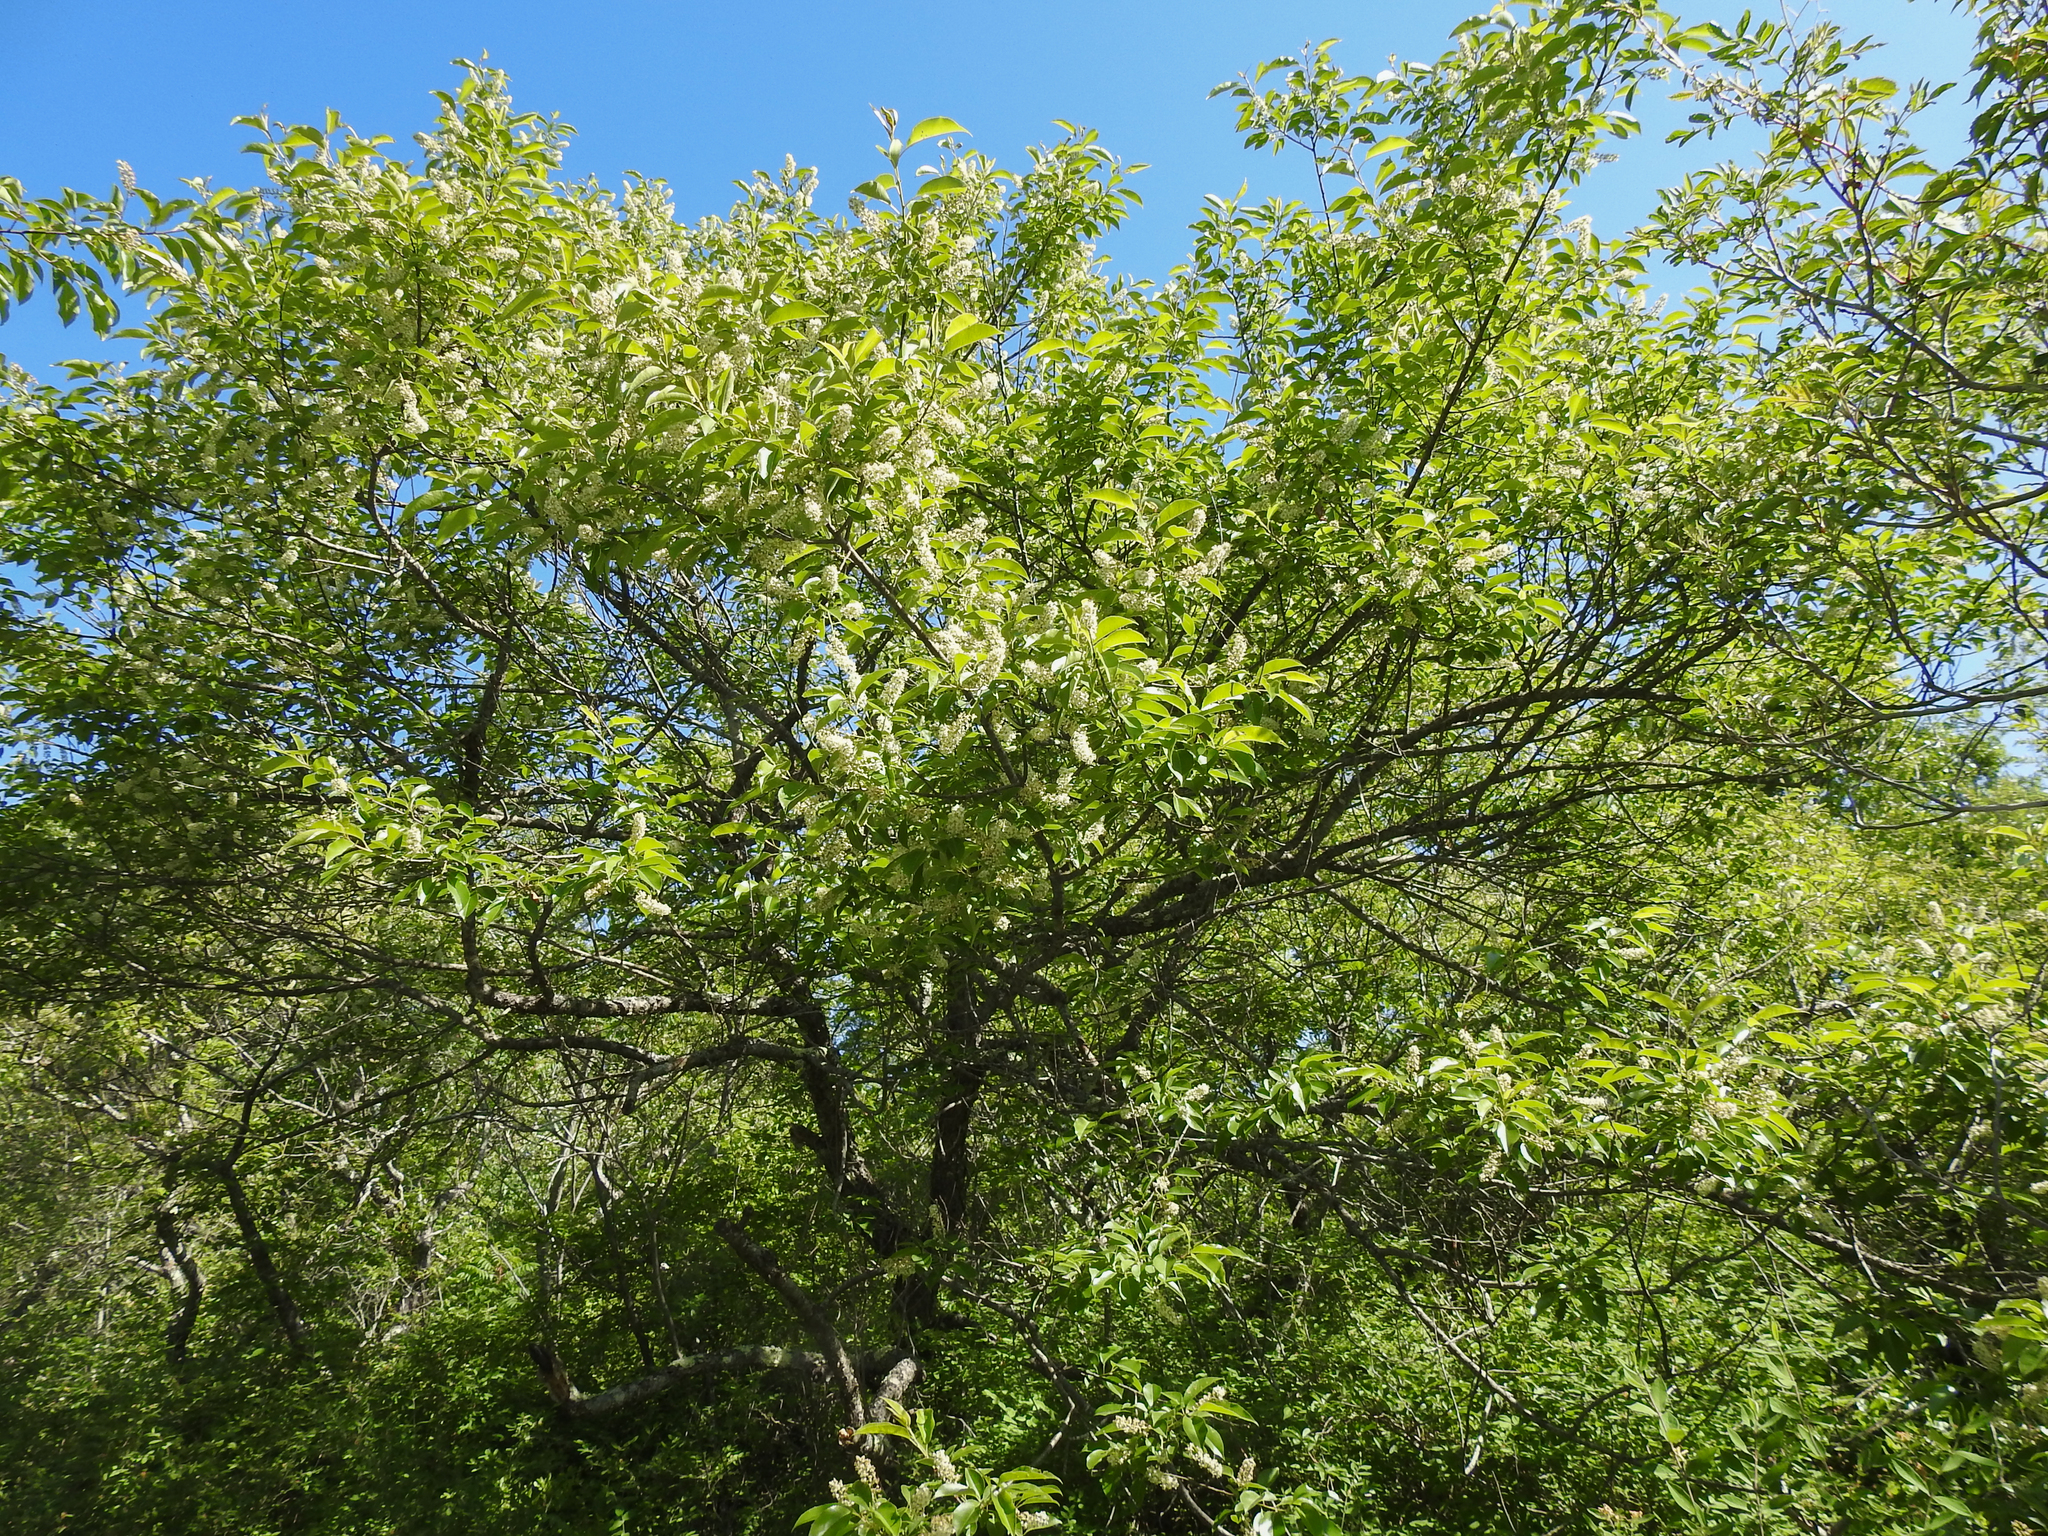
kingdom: Plantae
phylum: Tracheophyta
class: Magnoliopsida
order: Rosales
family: Rosaceae
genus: Prunus
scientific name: Prunus serotina
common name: Black cherry
